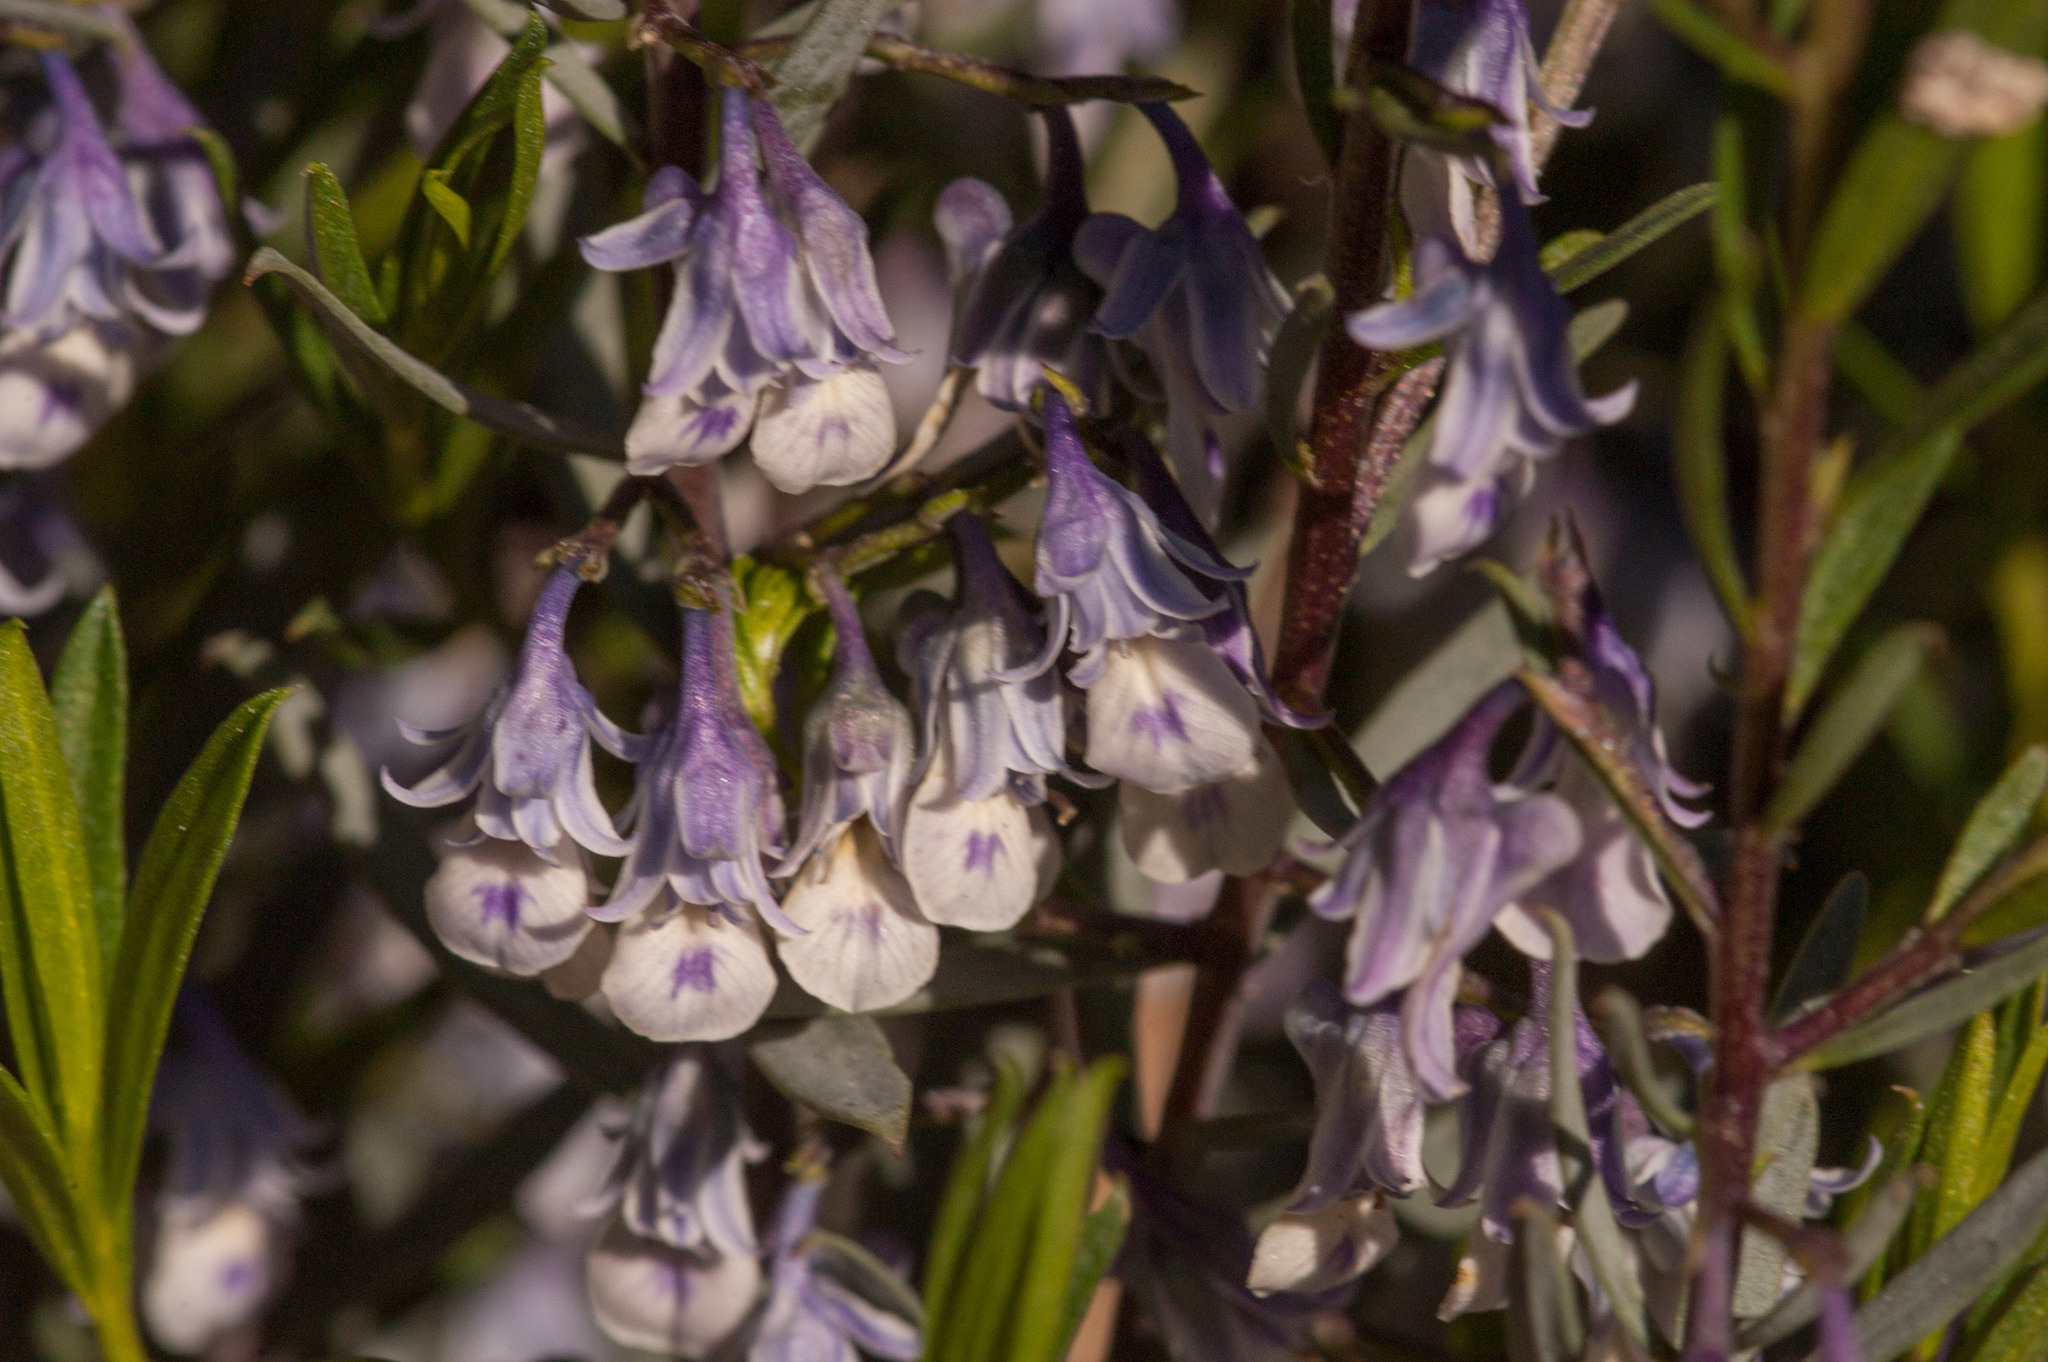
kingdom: Plantae
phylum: Tracheophyta
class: Magnoliopsida
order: Malpighiales
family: Violaceae
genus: Pigea
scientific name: Pigea floribunda
